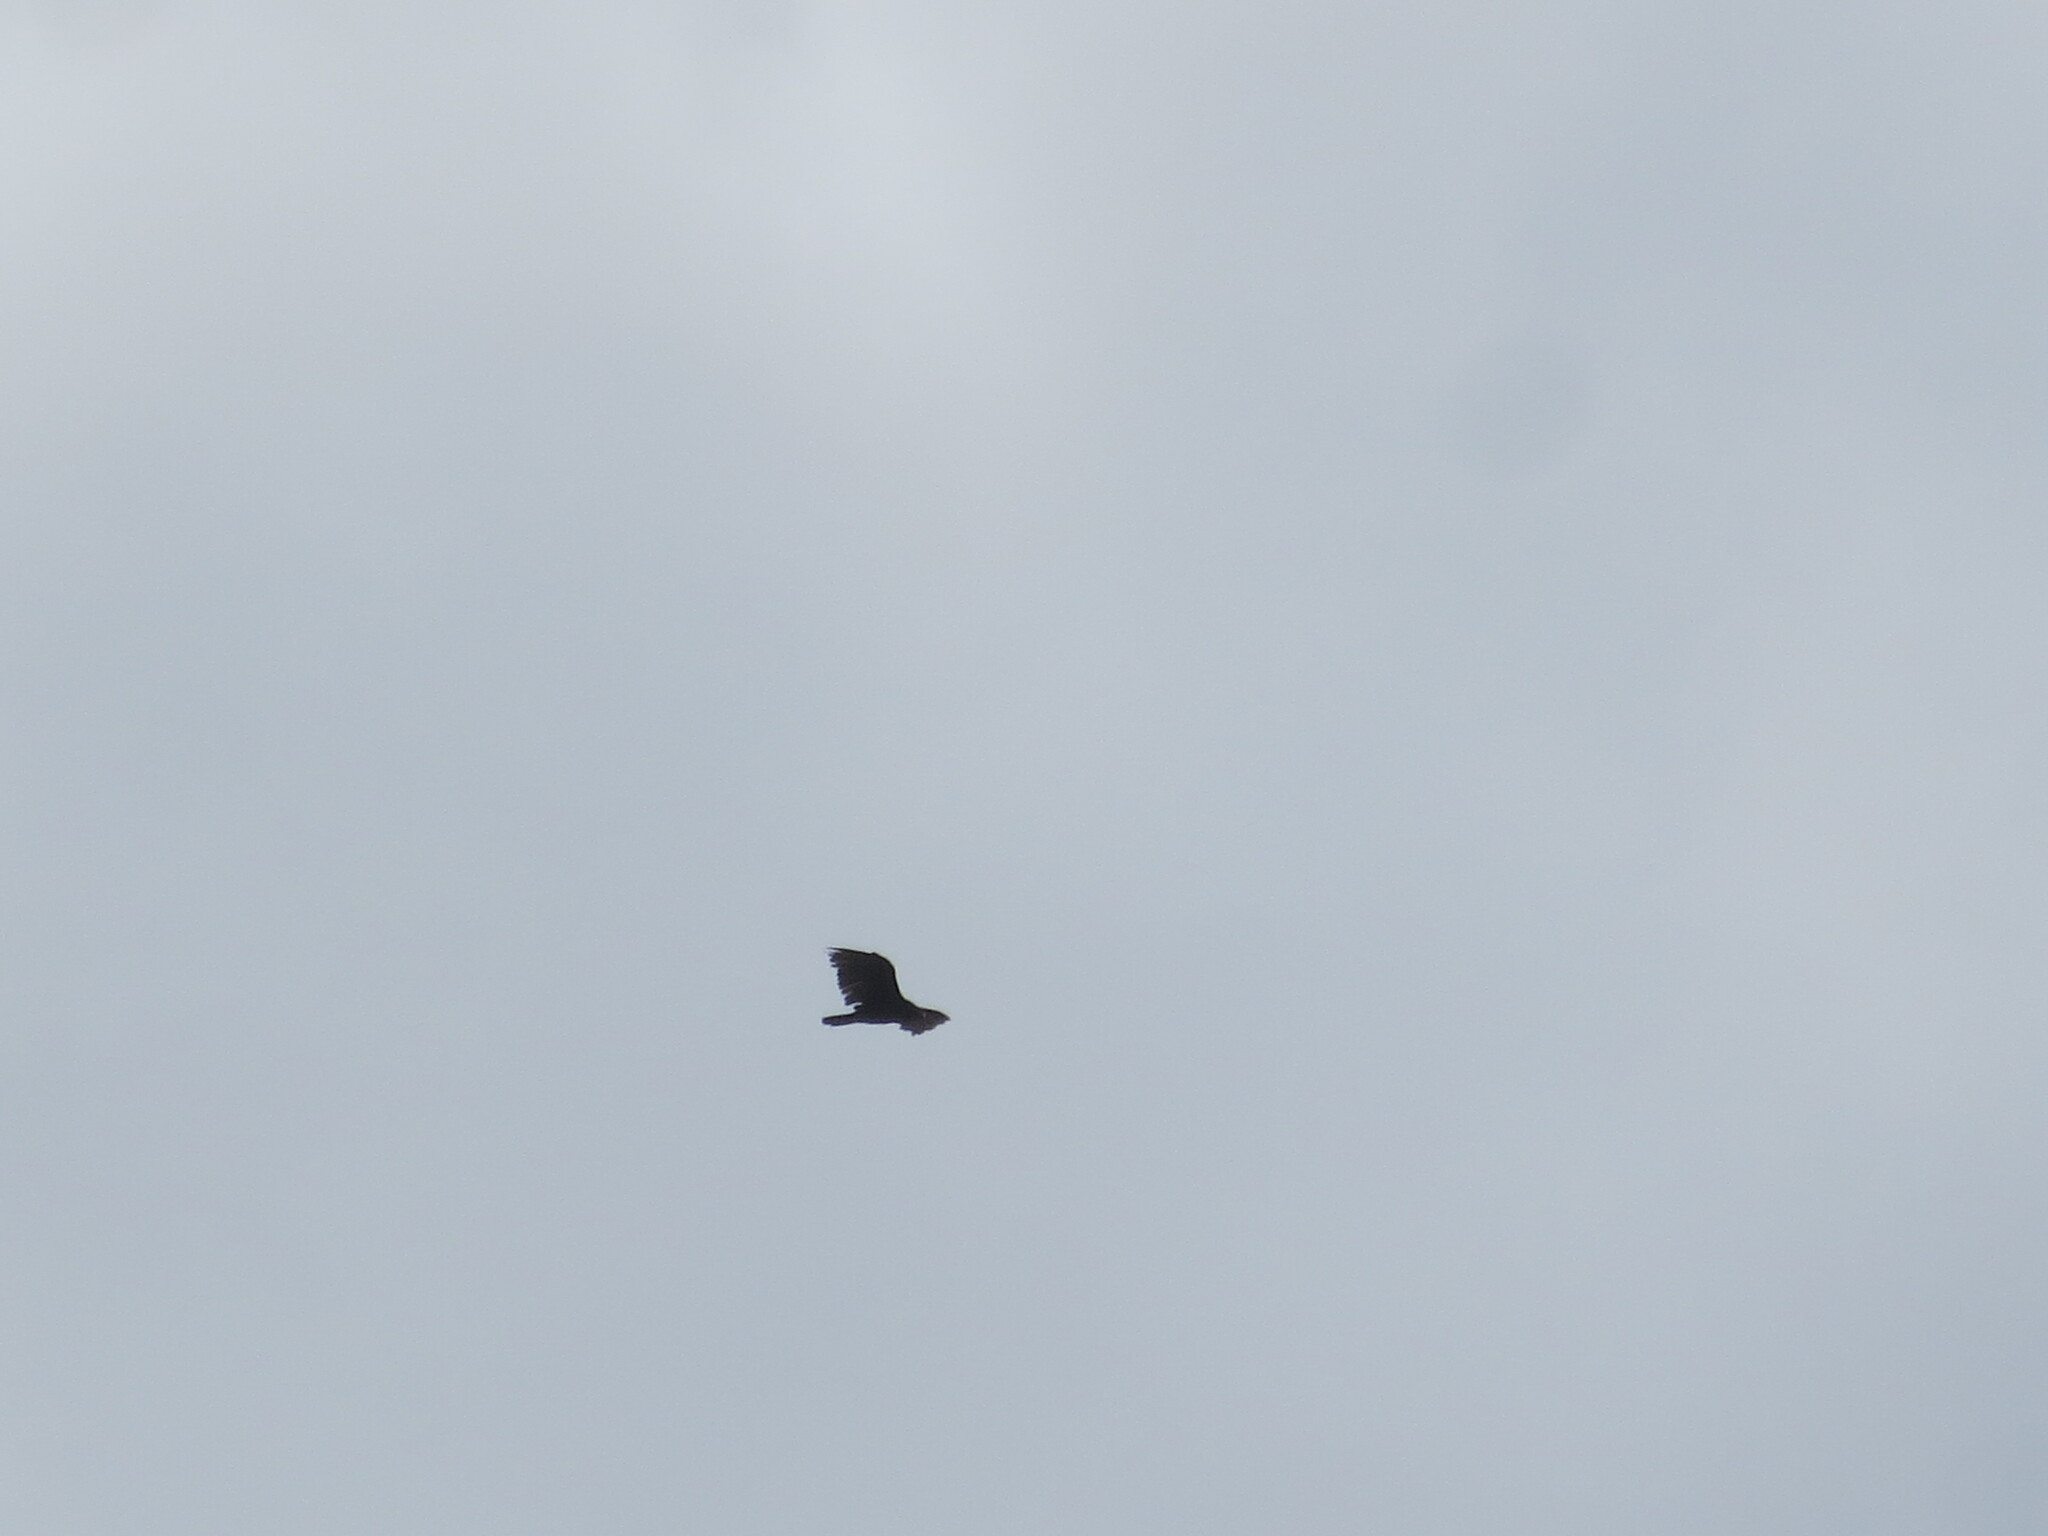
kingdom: Animalia
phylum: Chordata
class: Aves
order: Accipitriformes
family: Cathartidae
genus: Cathartes
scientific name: Cathartes aura
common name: Turkey vulture
